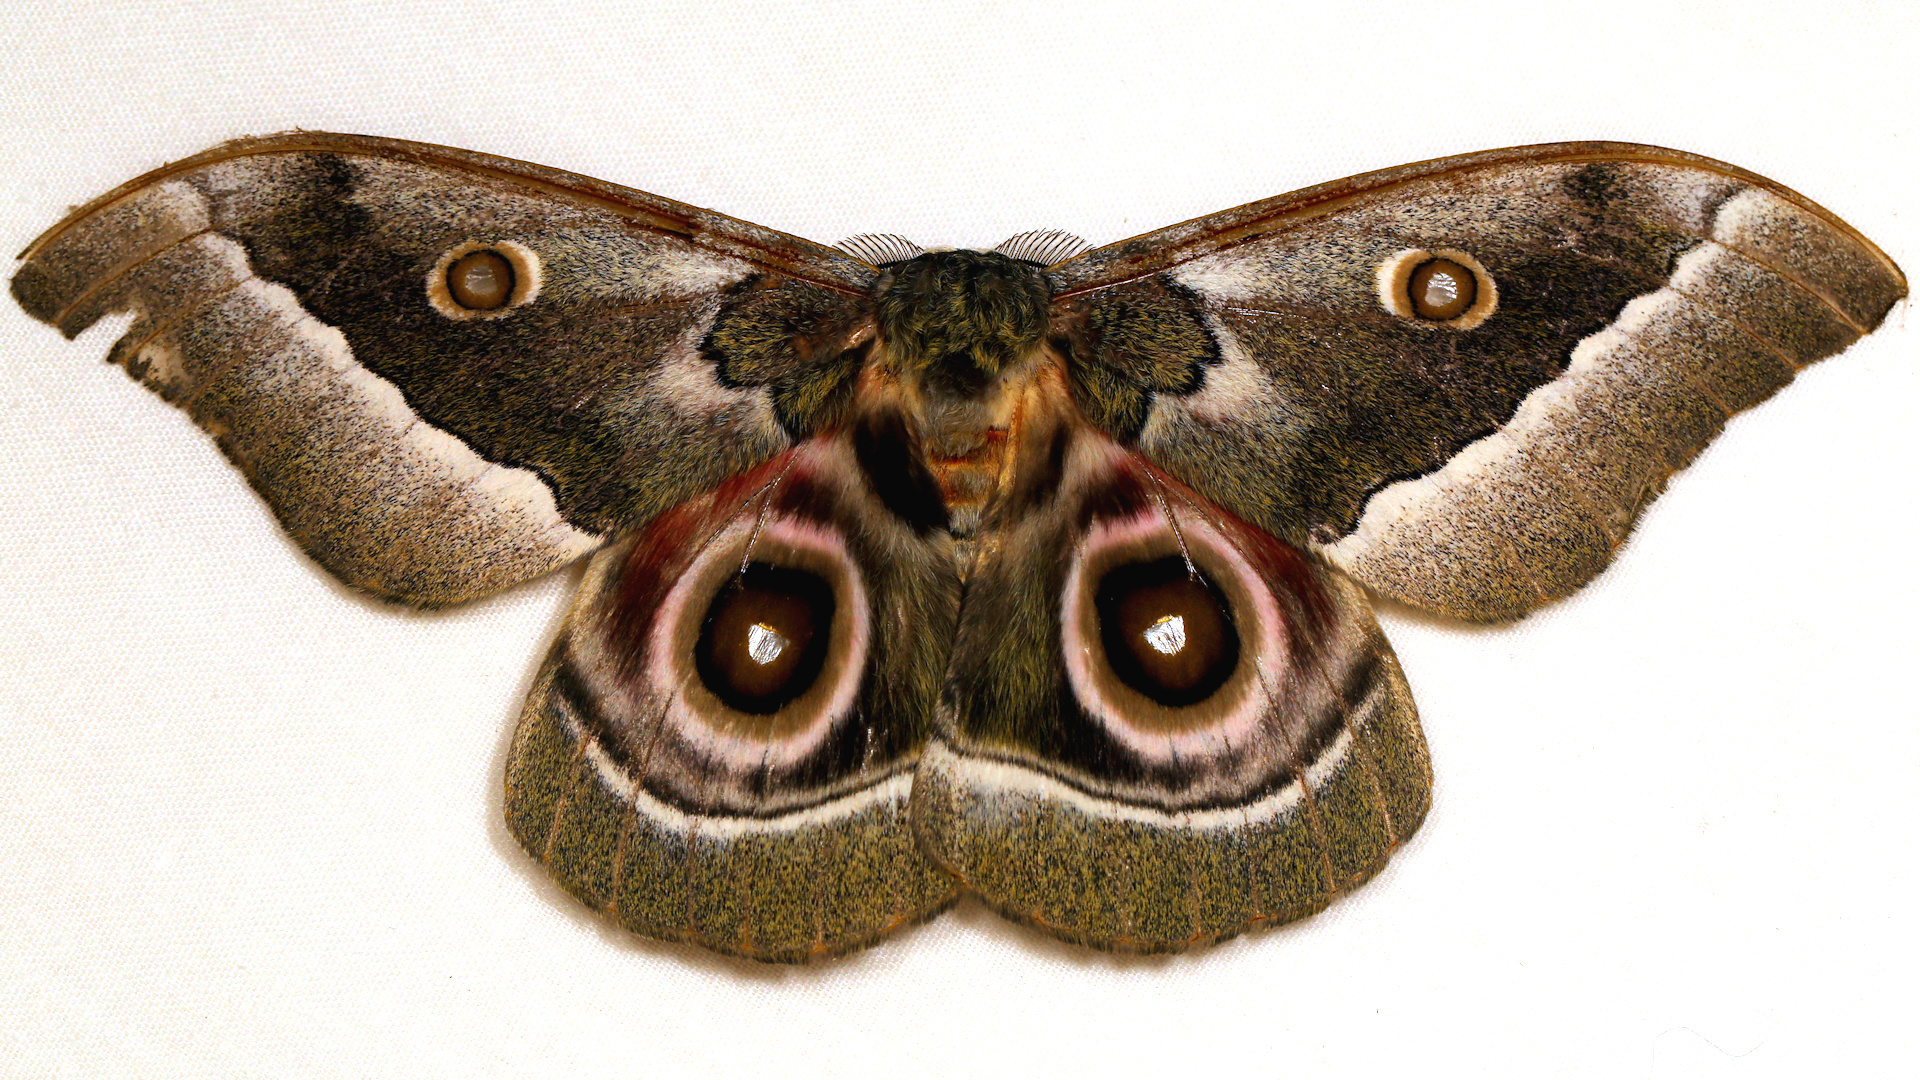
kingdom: Animalia
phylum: Arthropoda
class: Insecta
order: Lepidoptera
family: Saturniidae
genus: Gonimbrasia
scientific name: Gonimbrasia zambesina
